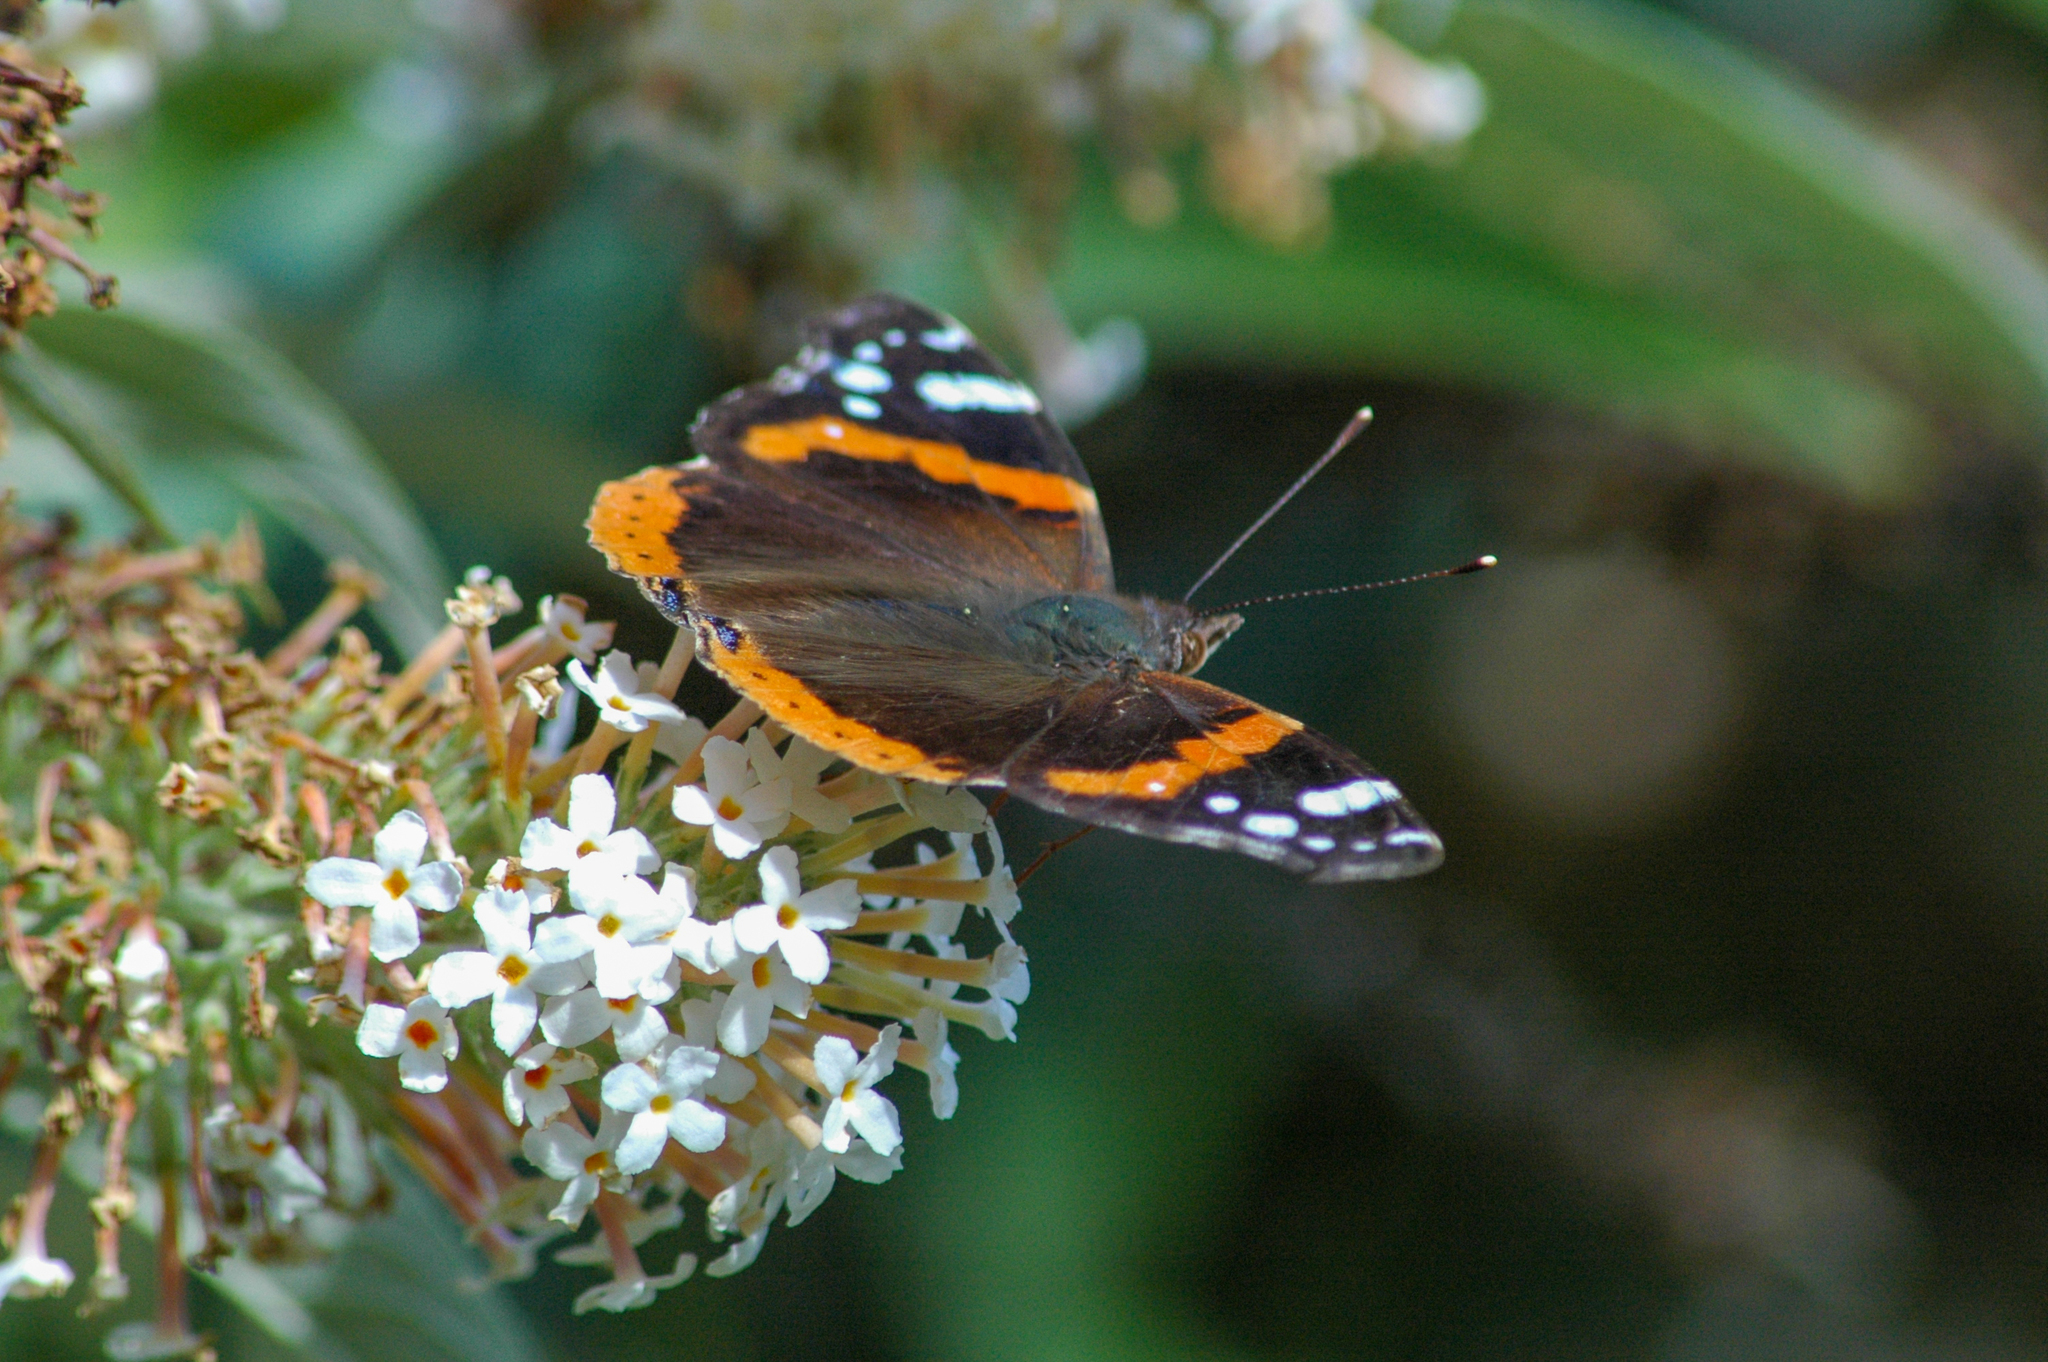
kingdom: Animalia
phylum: Arthropoda
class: Insecta
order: Lepidoptera
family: Nymphalidae
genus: Vanessa
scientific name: Vanessa atalanta
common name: Red admiral
